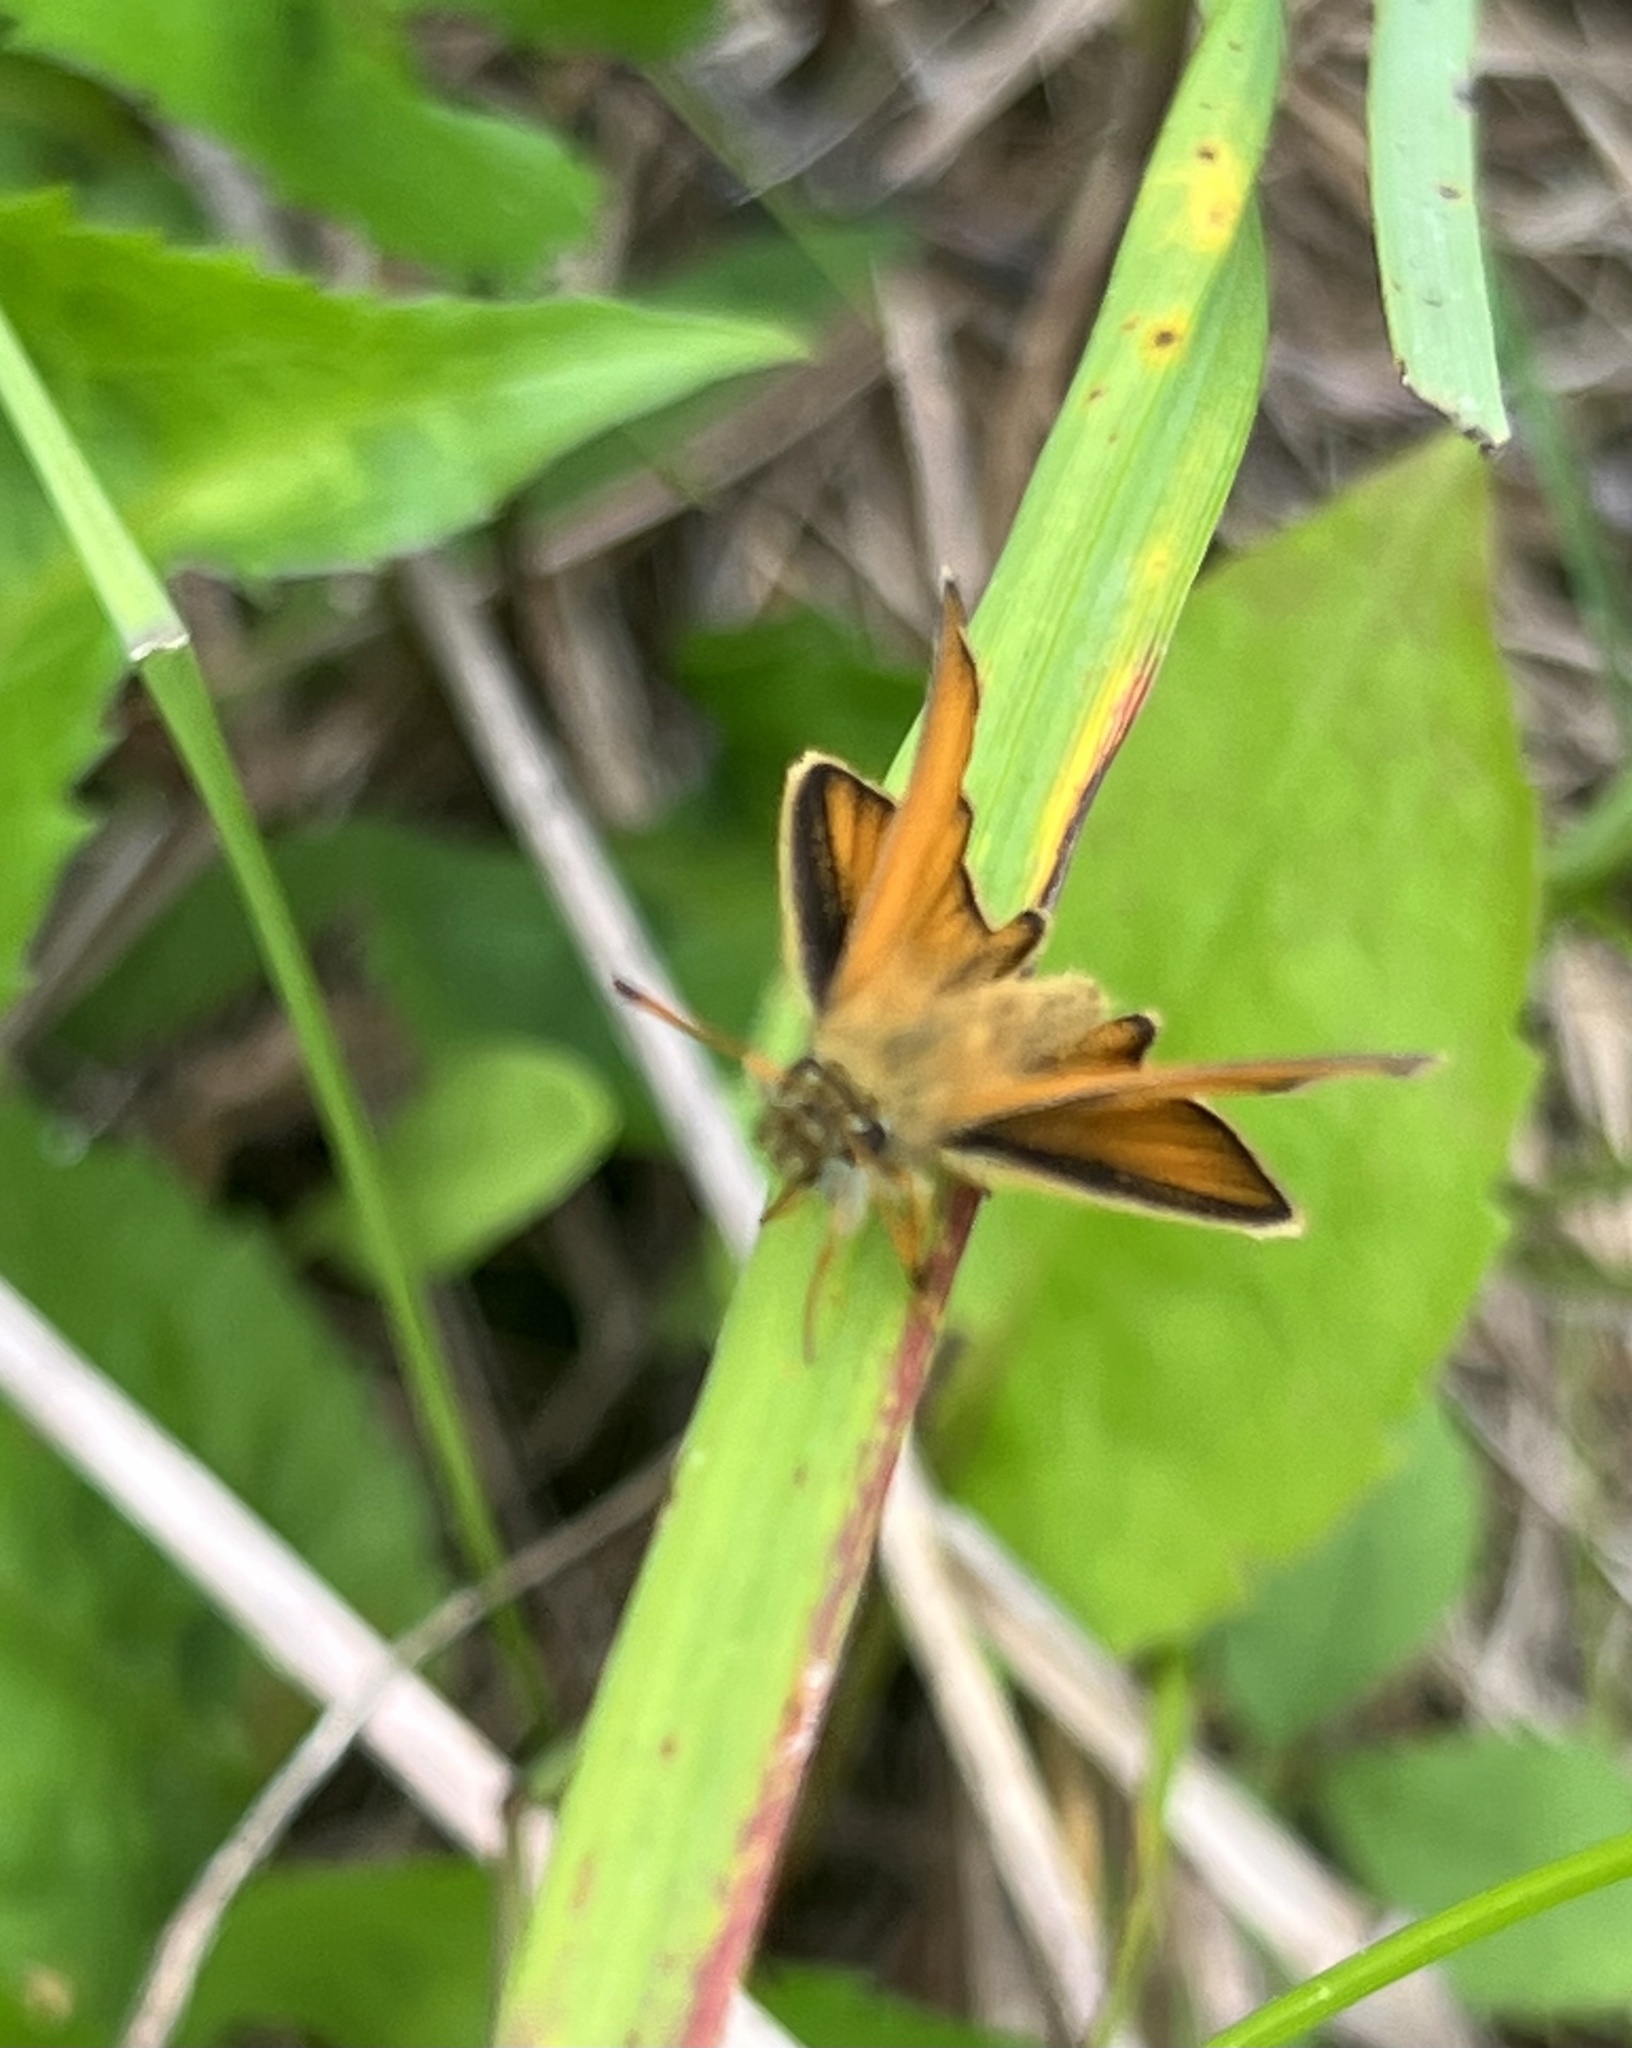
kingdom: Animalia
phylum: Arthropoda
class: Insecta
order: Lepidoptera
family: Hesperiidae
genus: Thymelicus
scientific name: Thymelicus lineola
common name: Essex skipper
